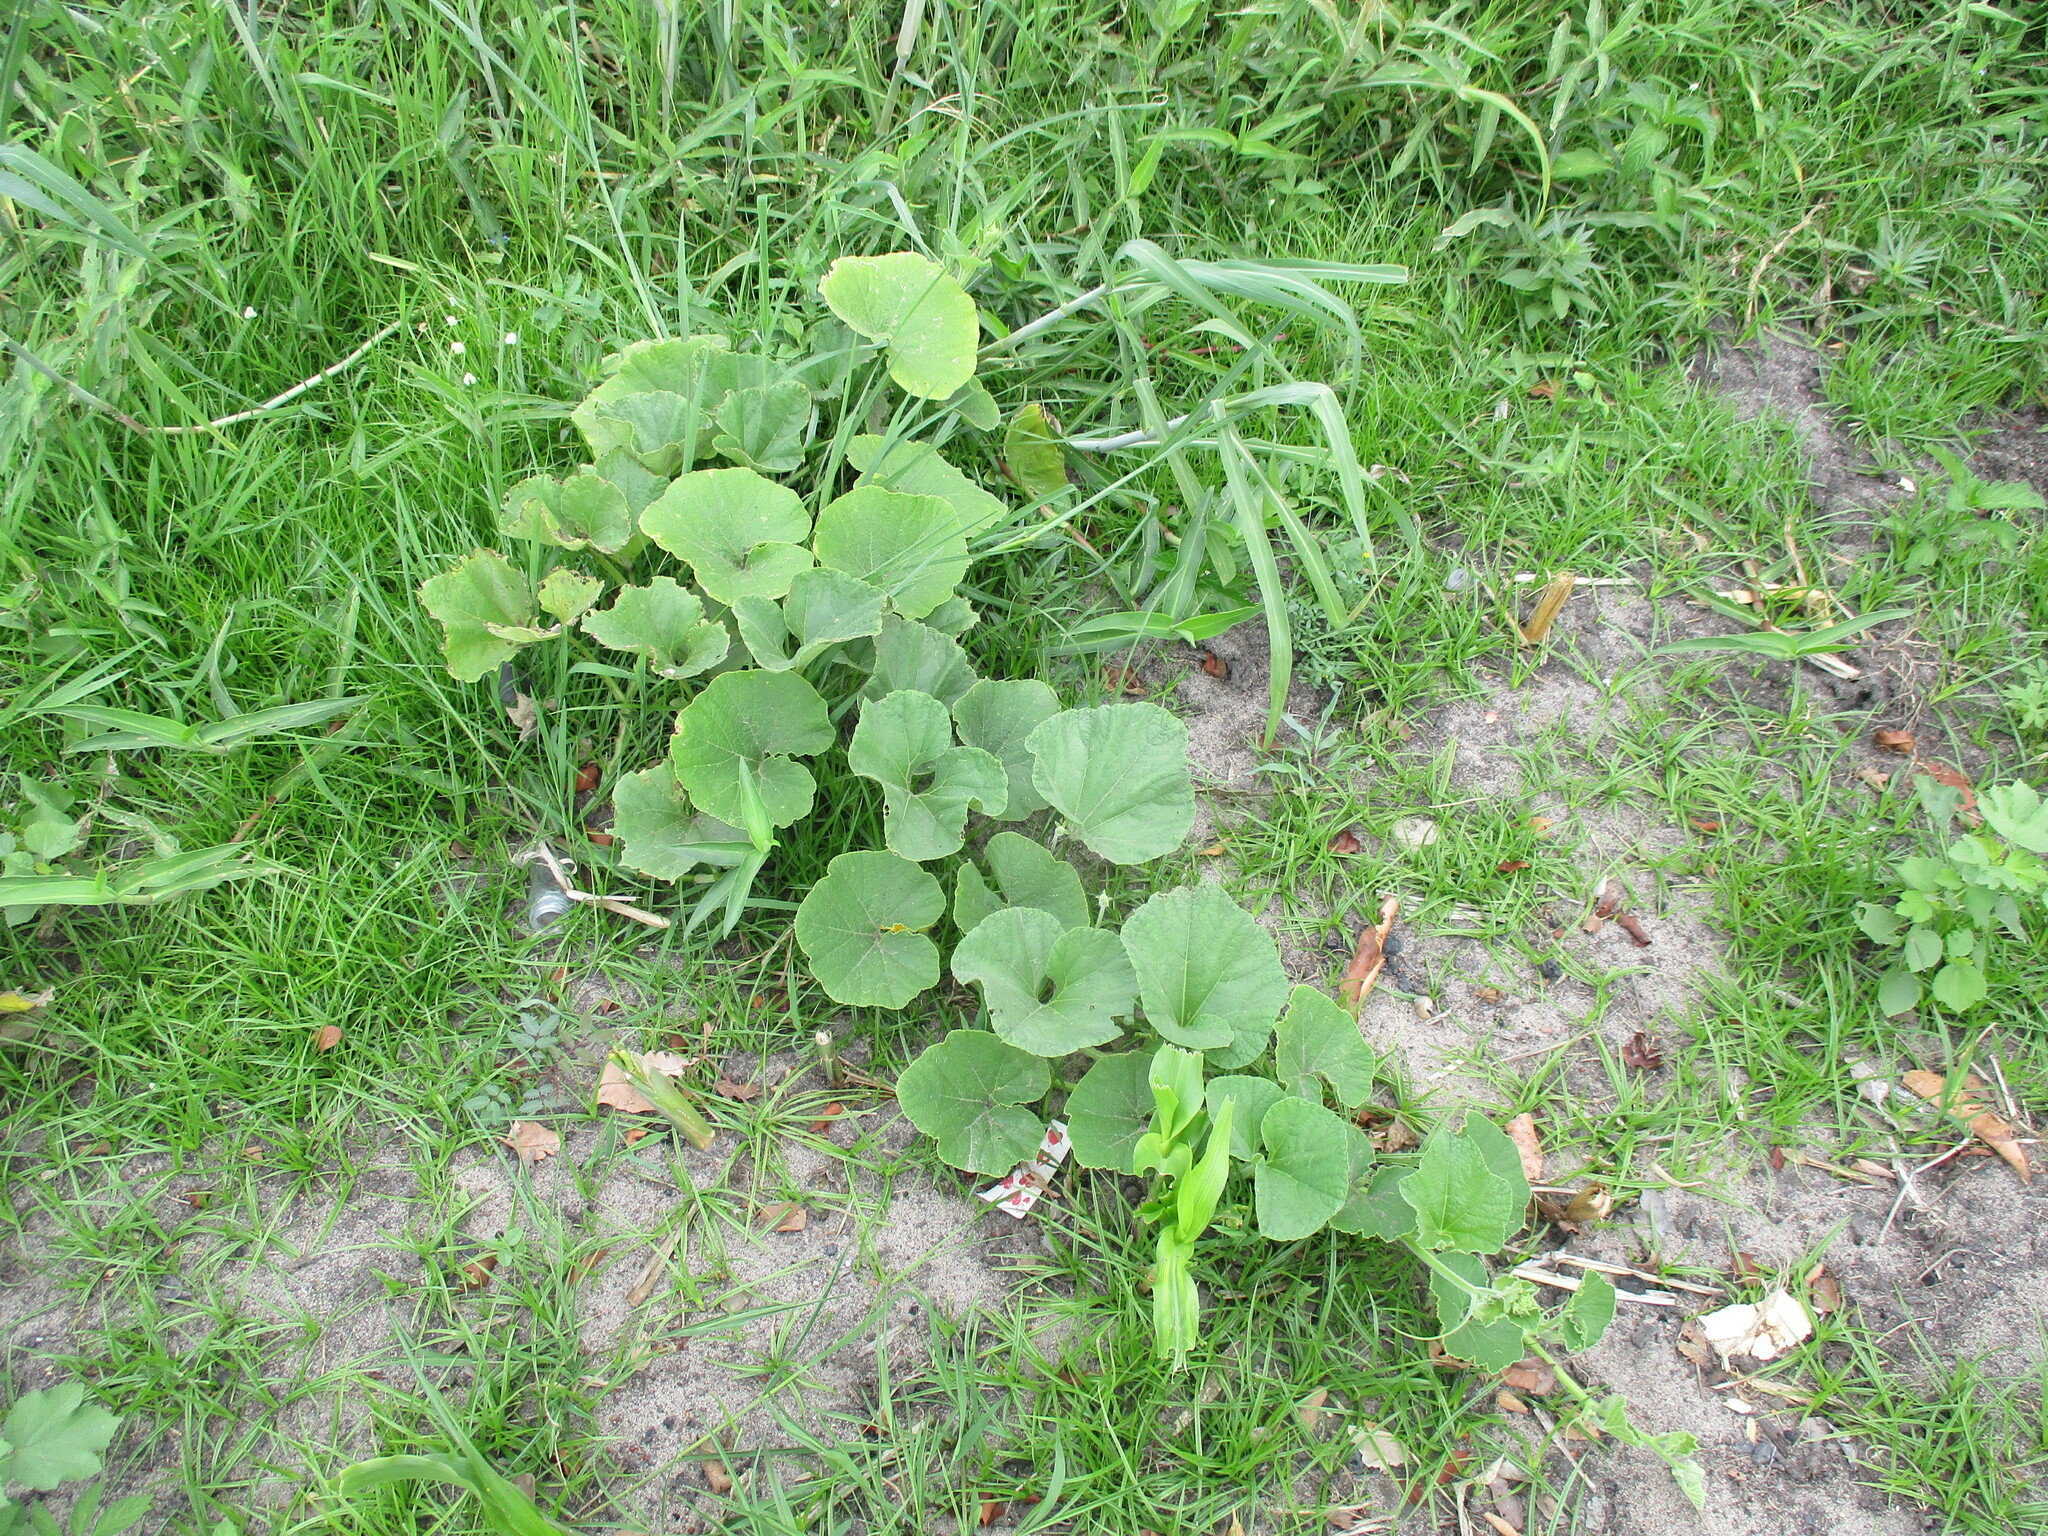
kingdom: Plantae
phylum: Tracheophyta
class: Magnoliopsida
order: Cucurbitales
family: Cucurbitaceae
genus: Lagenaria
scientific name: Lagenaria siceraria
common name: Bottle gourd
